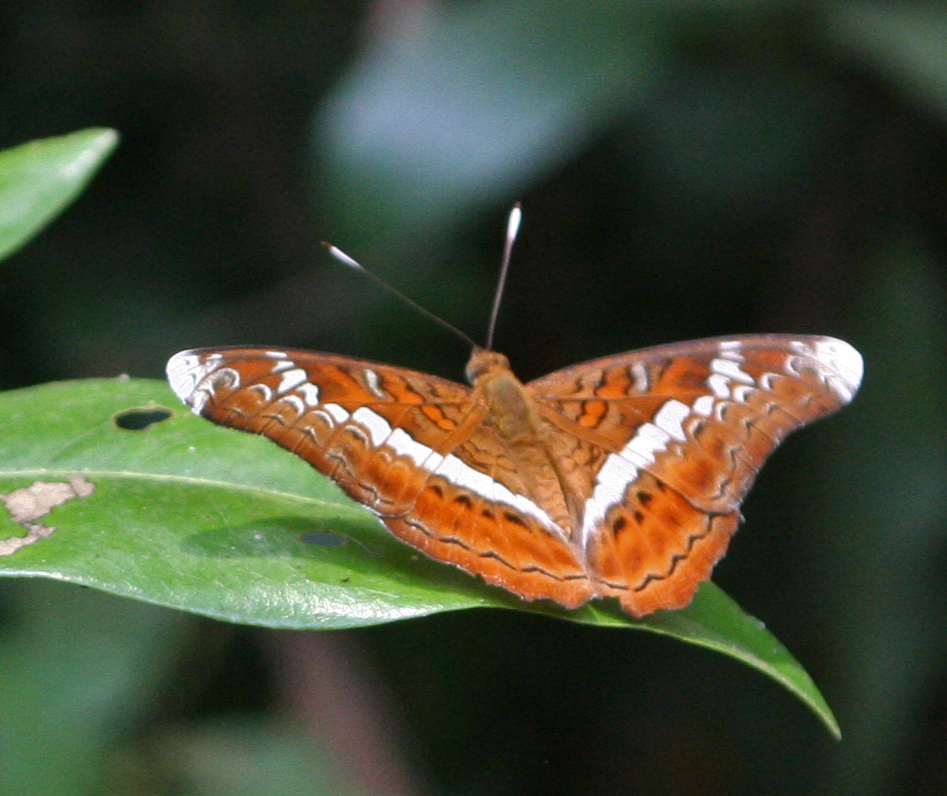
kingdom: Animalia
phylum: Arthropoda
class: Insecta
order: Lepidoptera
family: Nymphalidae
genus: Lebadea
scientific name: Lebadea martha
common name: Knight
